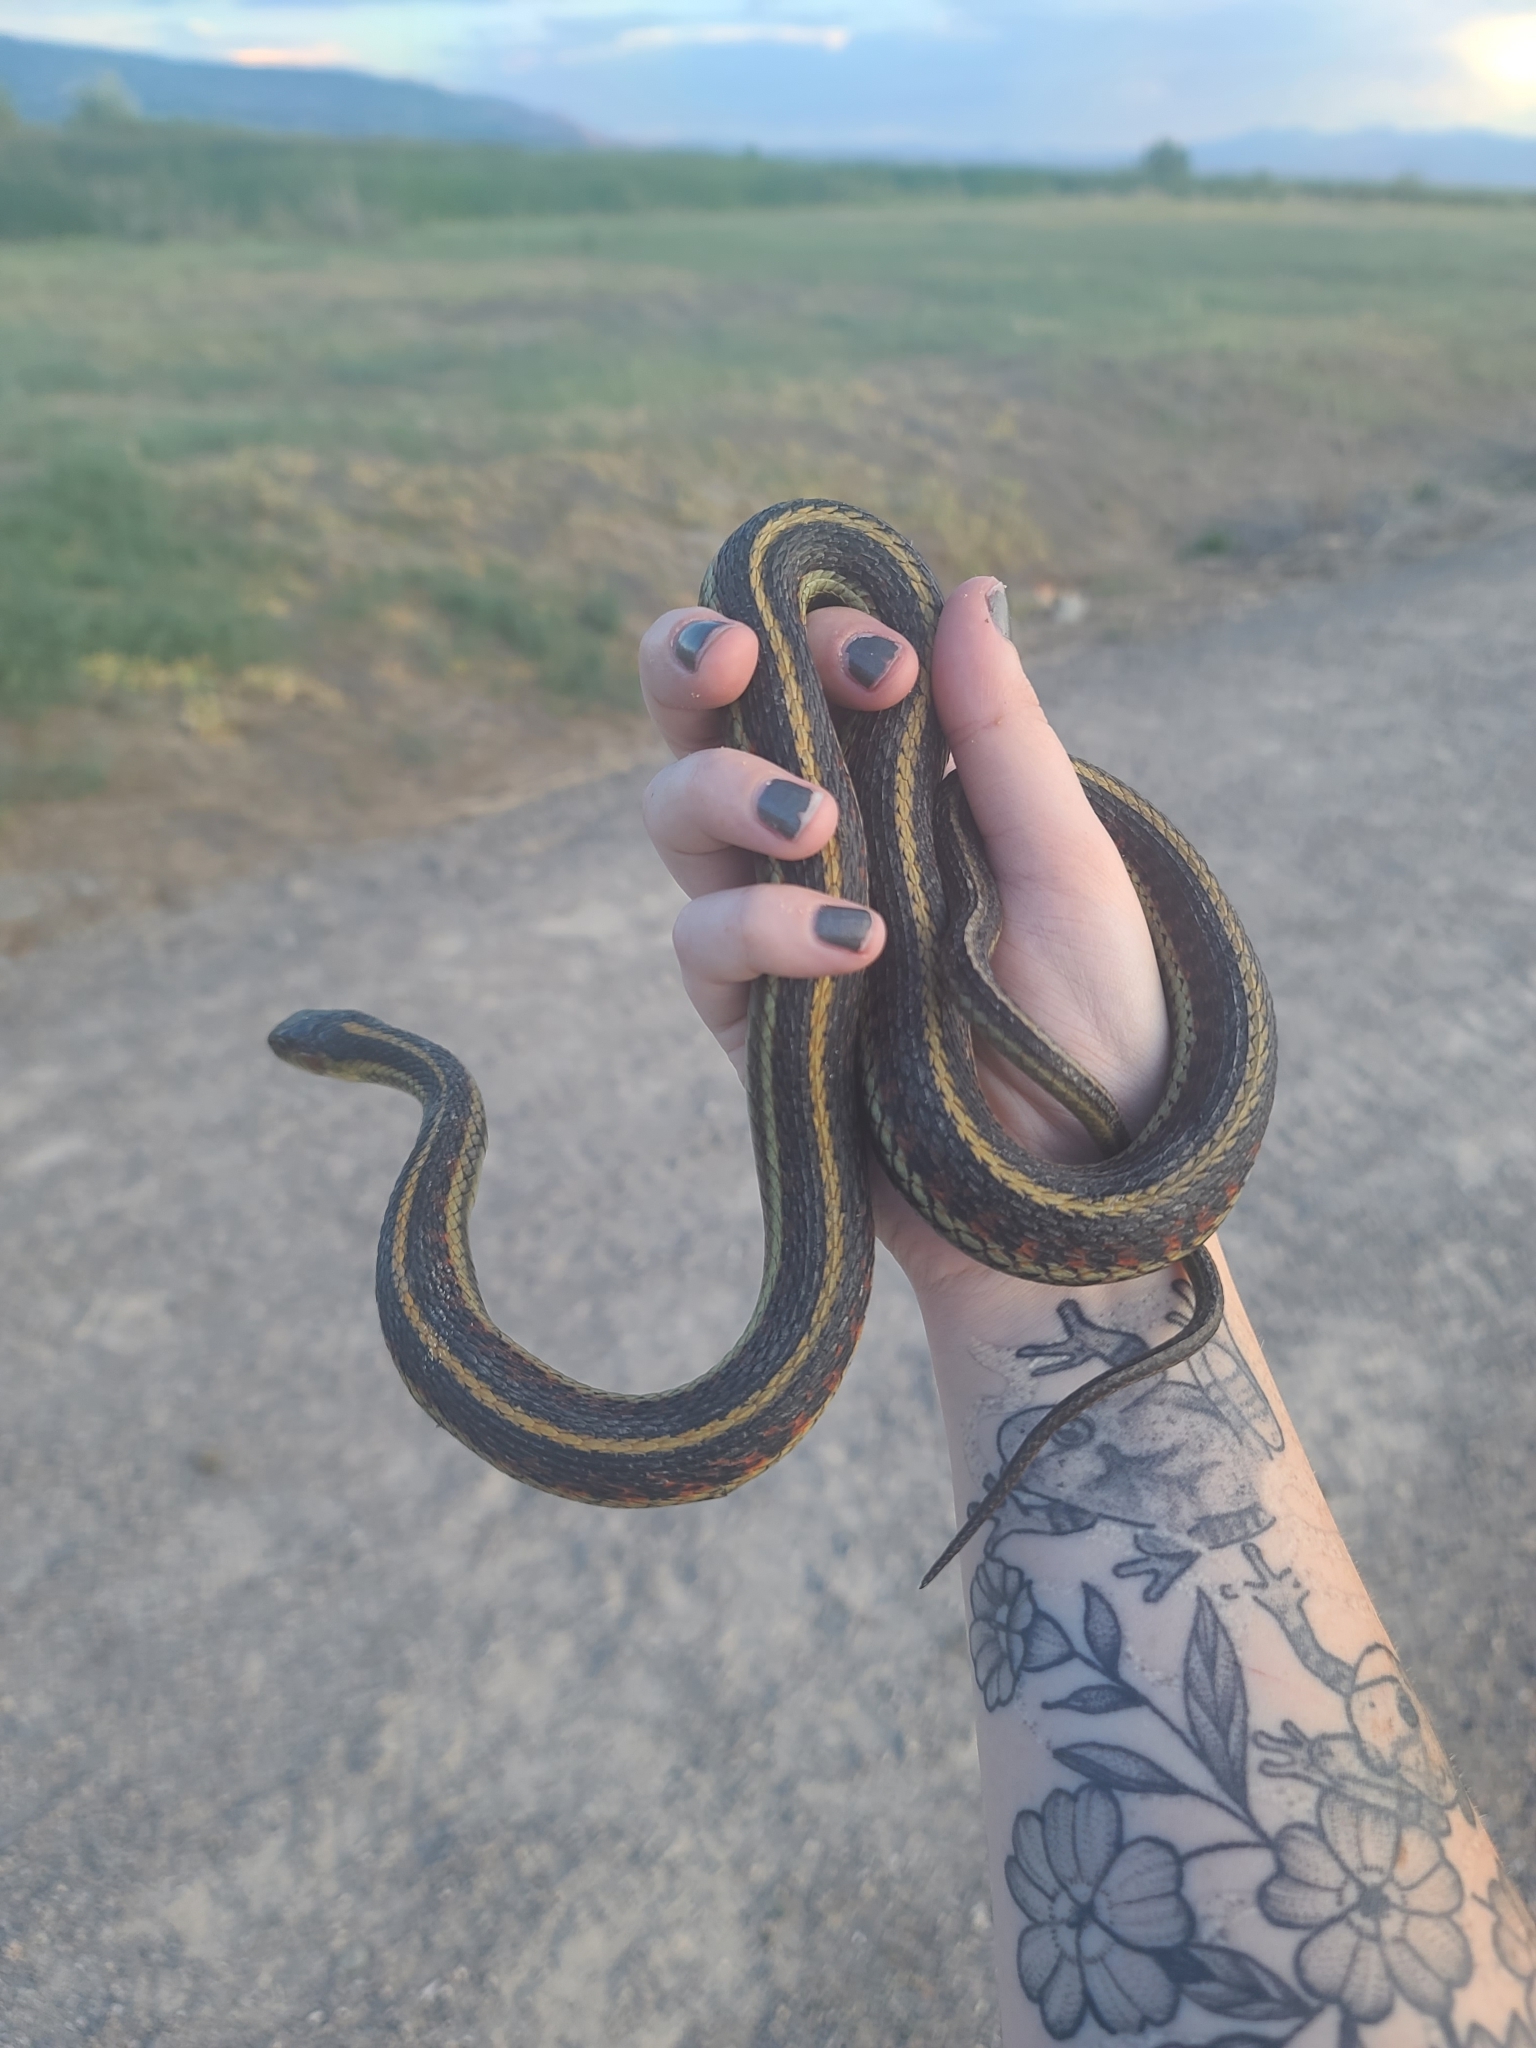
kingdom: Animalia
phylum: Chordata
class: Squamata
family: Colubridae
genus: Thamnophis
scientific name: Thamnophis sirtalis
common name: Common garter snake
